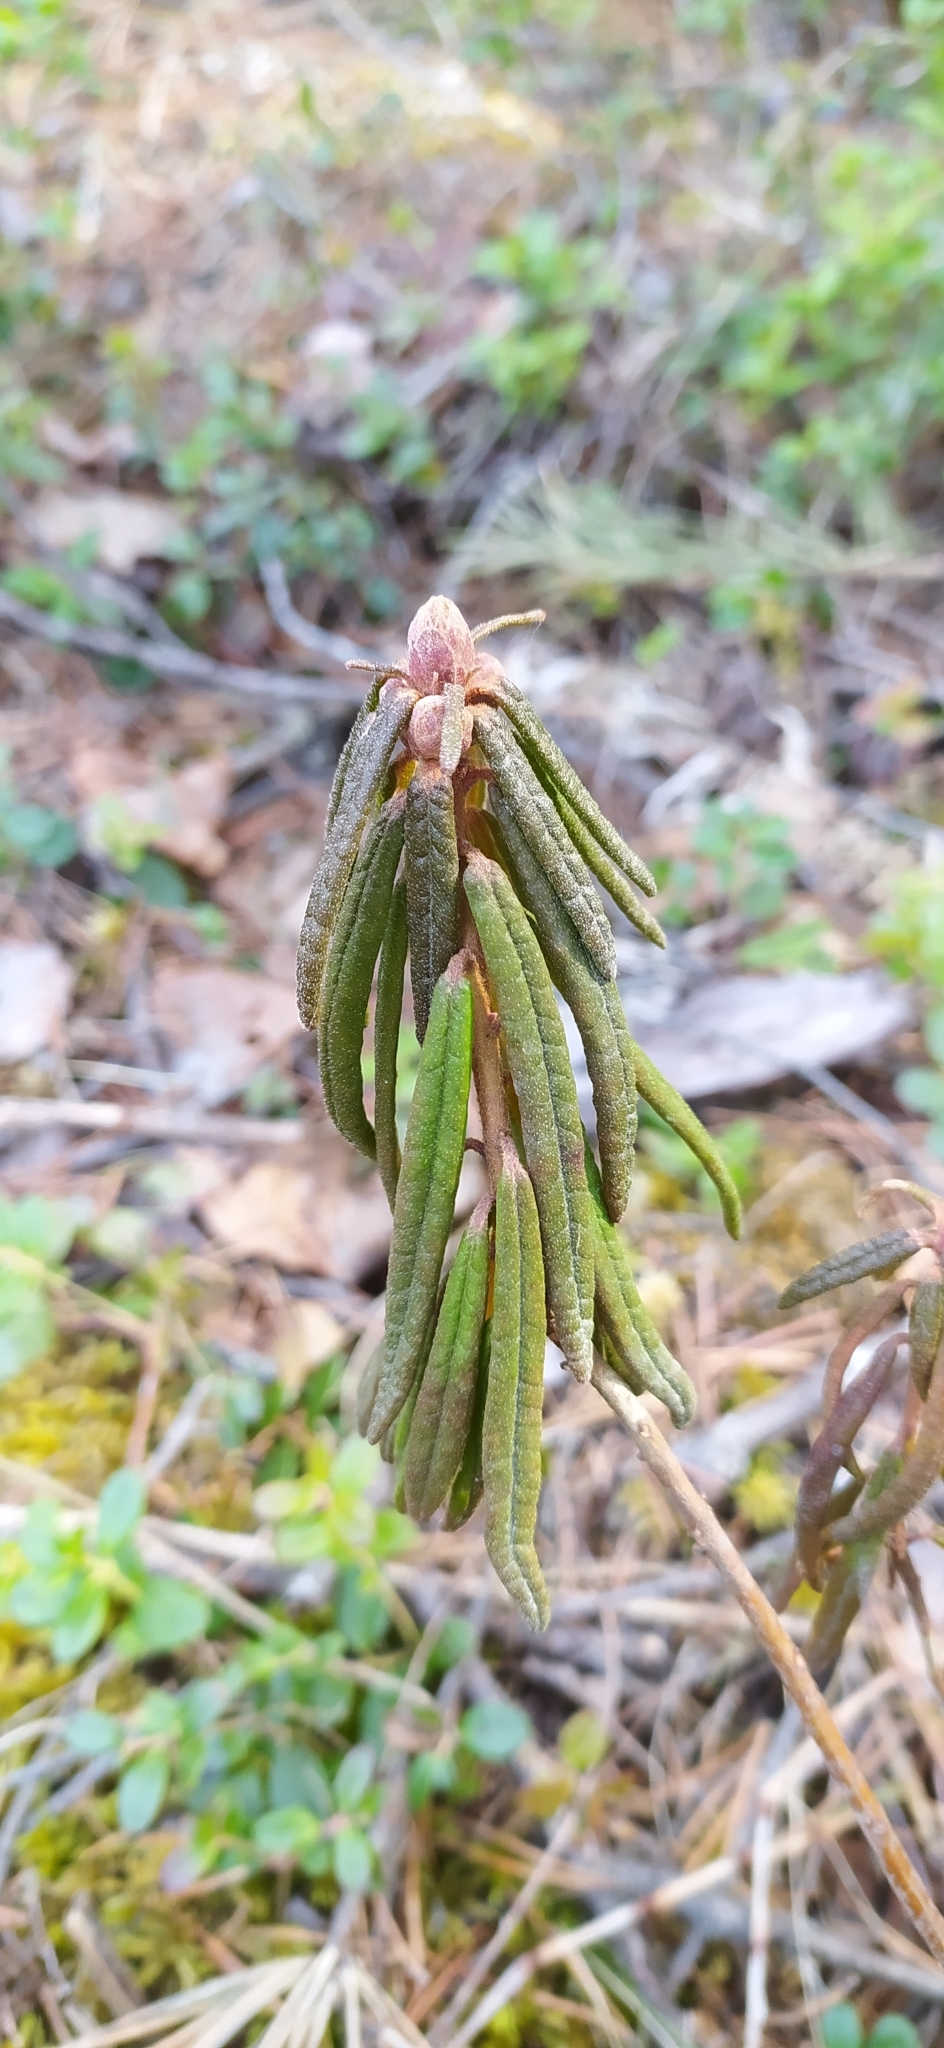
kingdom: Plantae
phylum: Tracheophyta
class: Magnoliopsida
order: Ericales
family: Ericaceae
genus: Rhododendron
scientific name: Rhododendron tomentosum
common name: Marsh labrador tea
